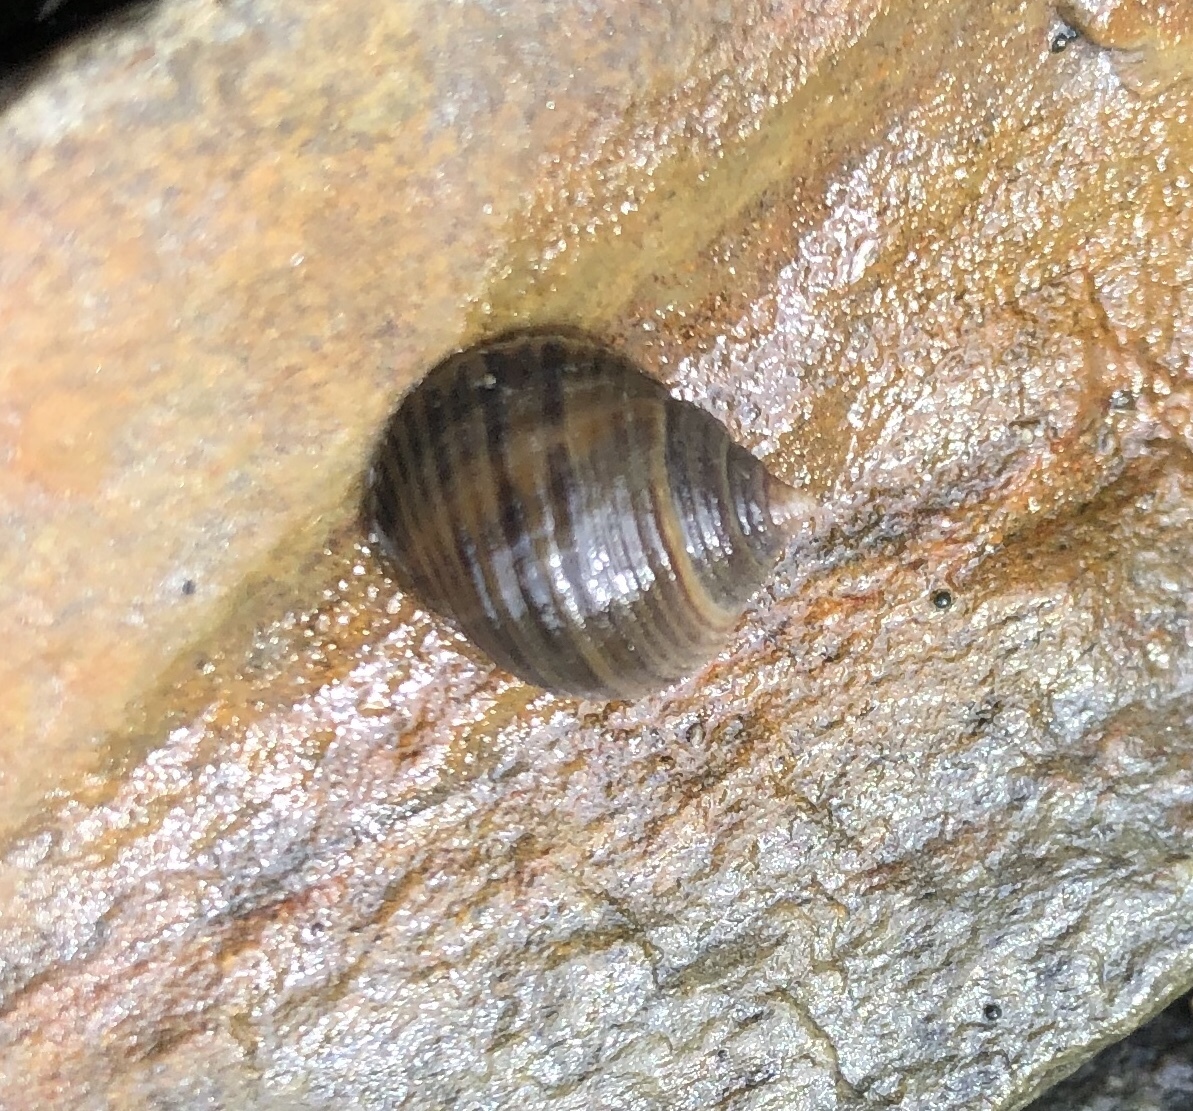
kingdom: Animalia
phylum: Mollusca
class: Gastropoda
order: Littorinimorpha
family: Littorinidae
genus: Littorina
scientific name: Littorina littorea
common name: Common periwinkle
